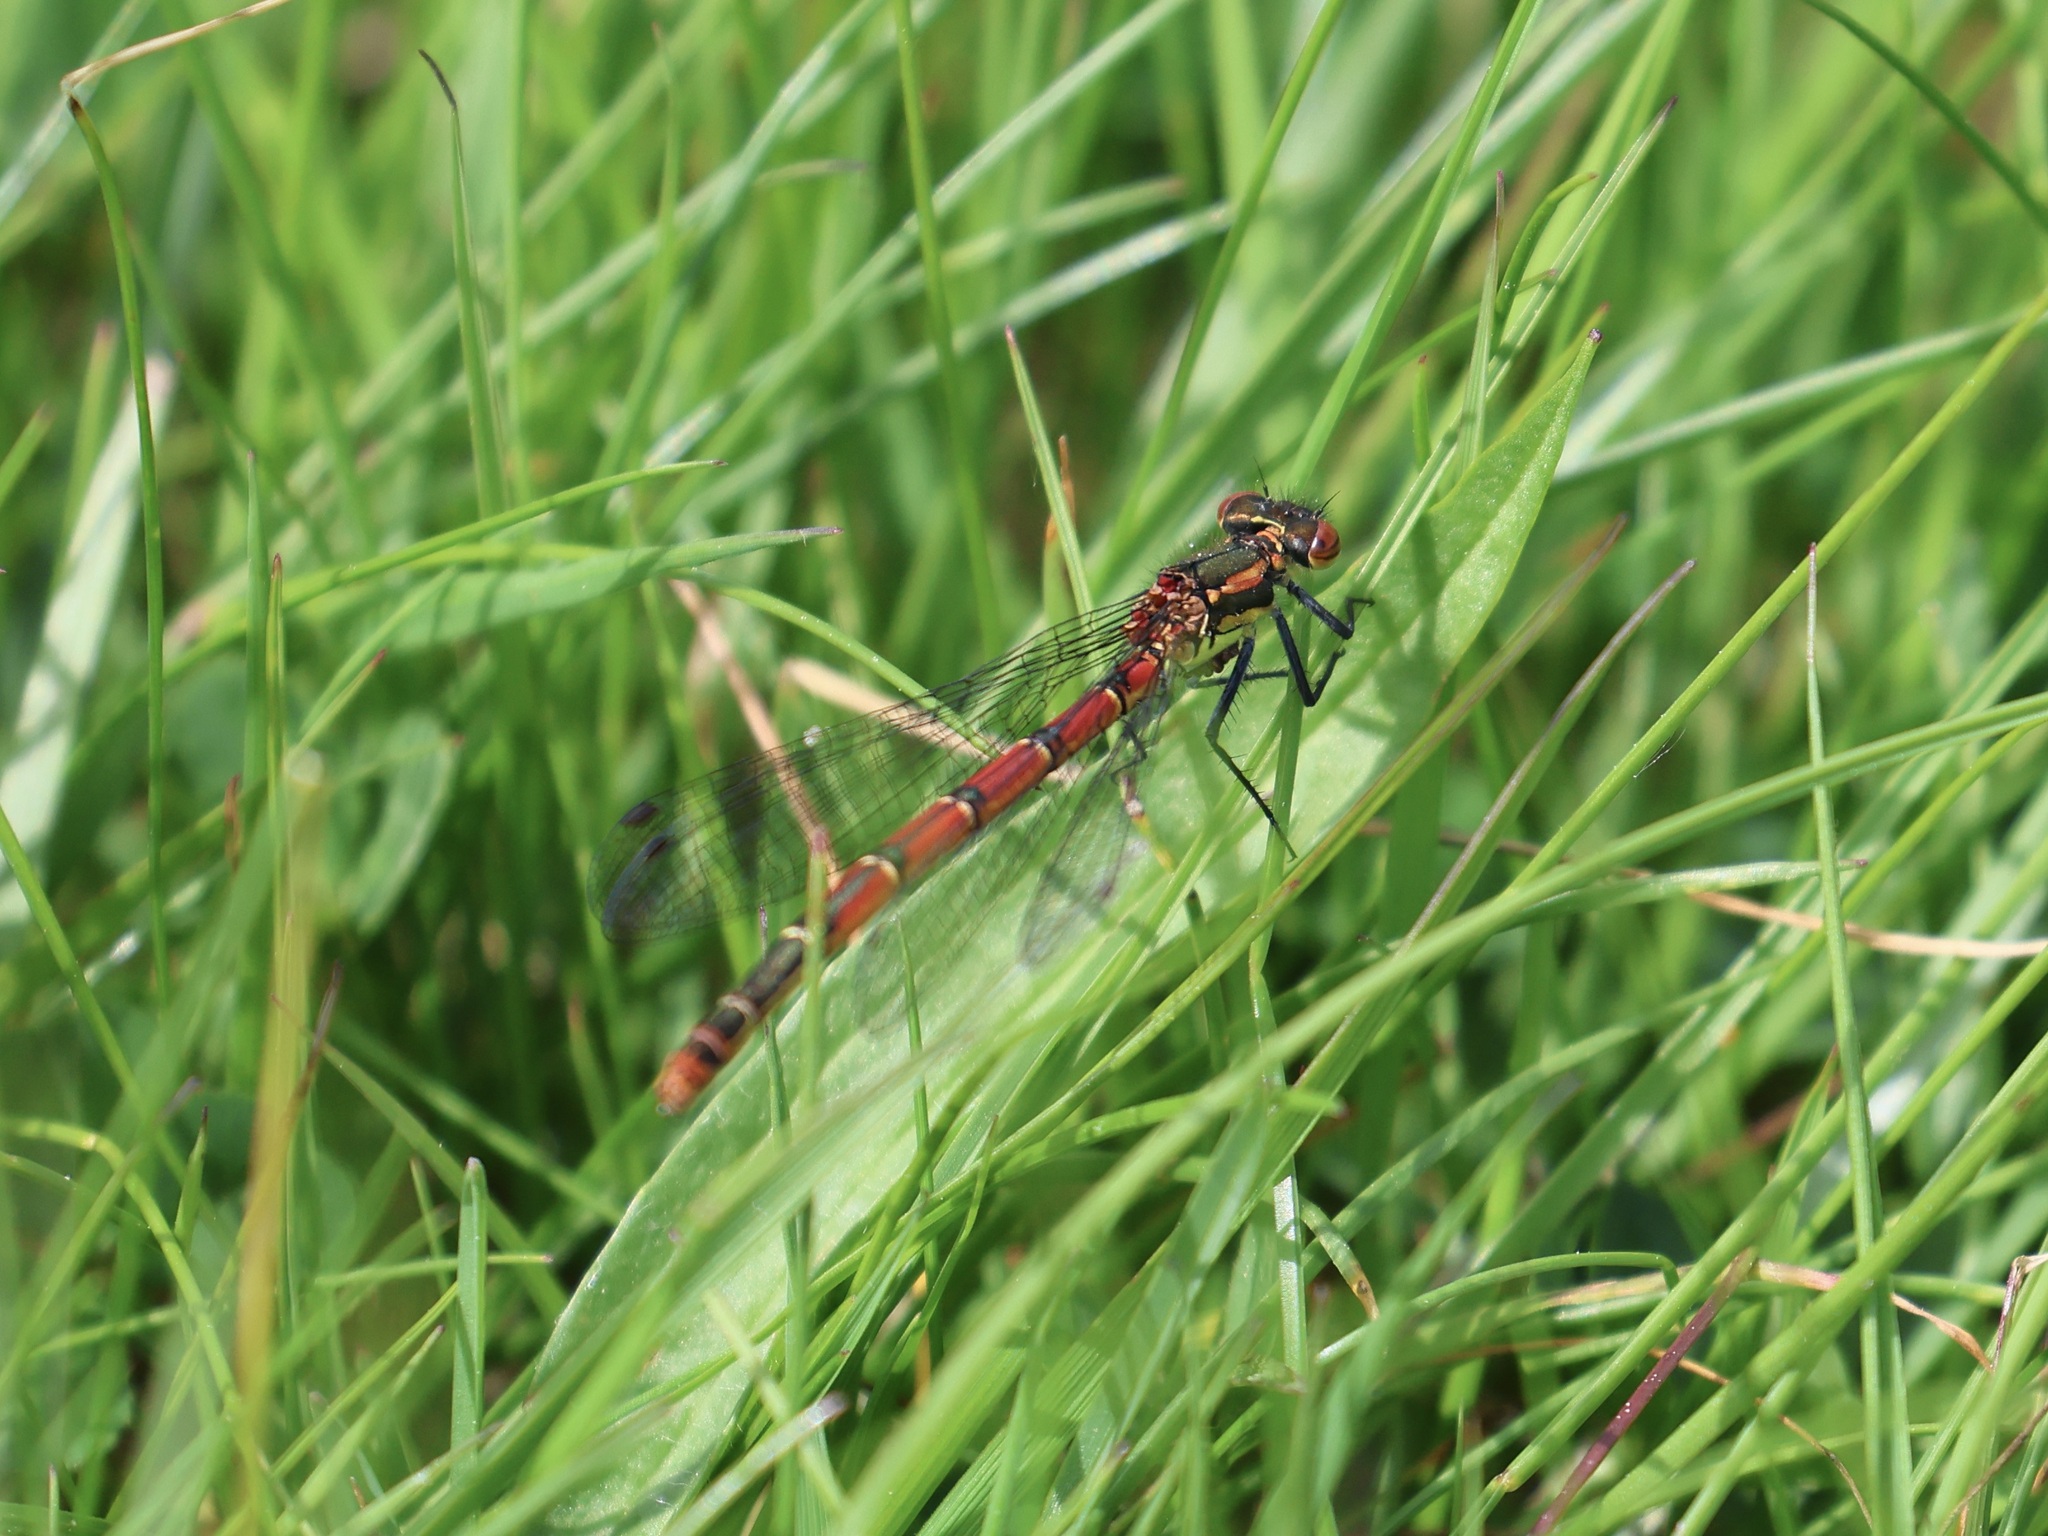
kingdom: Animalia
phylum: Arthropoda
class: Insecta
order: Odonata
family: Coenagrionidae
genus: Pyrrhosoma
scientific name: Pyrrhosoma nymphula
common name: Large red damsel
